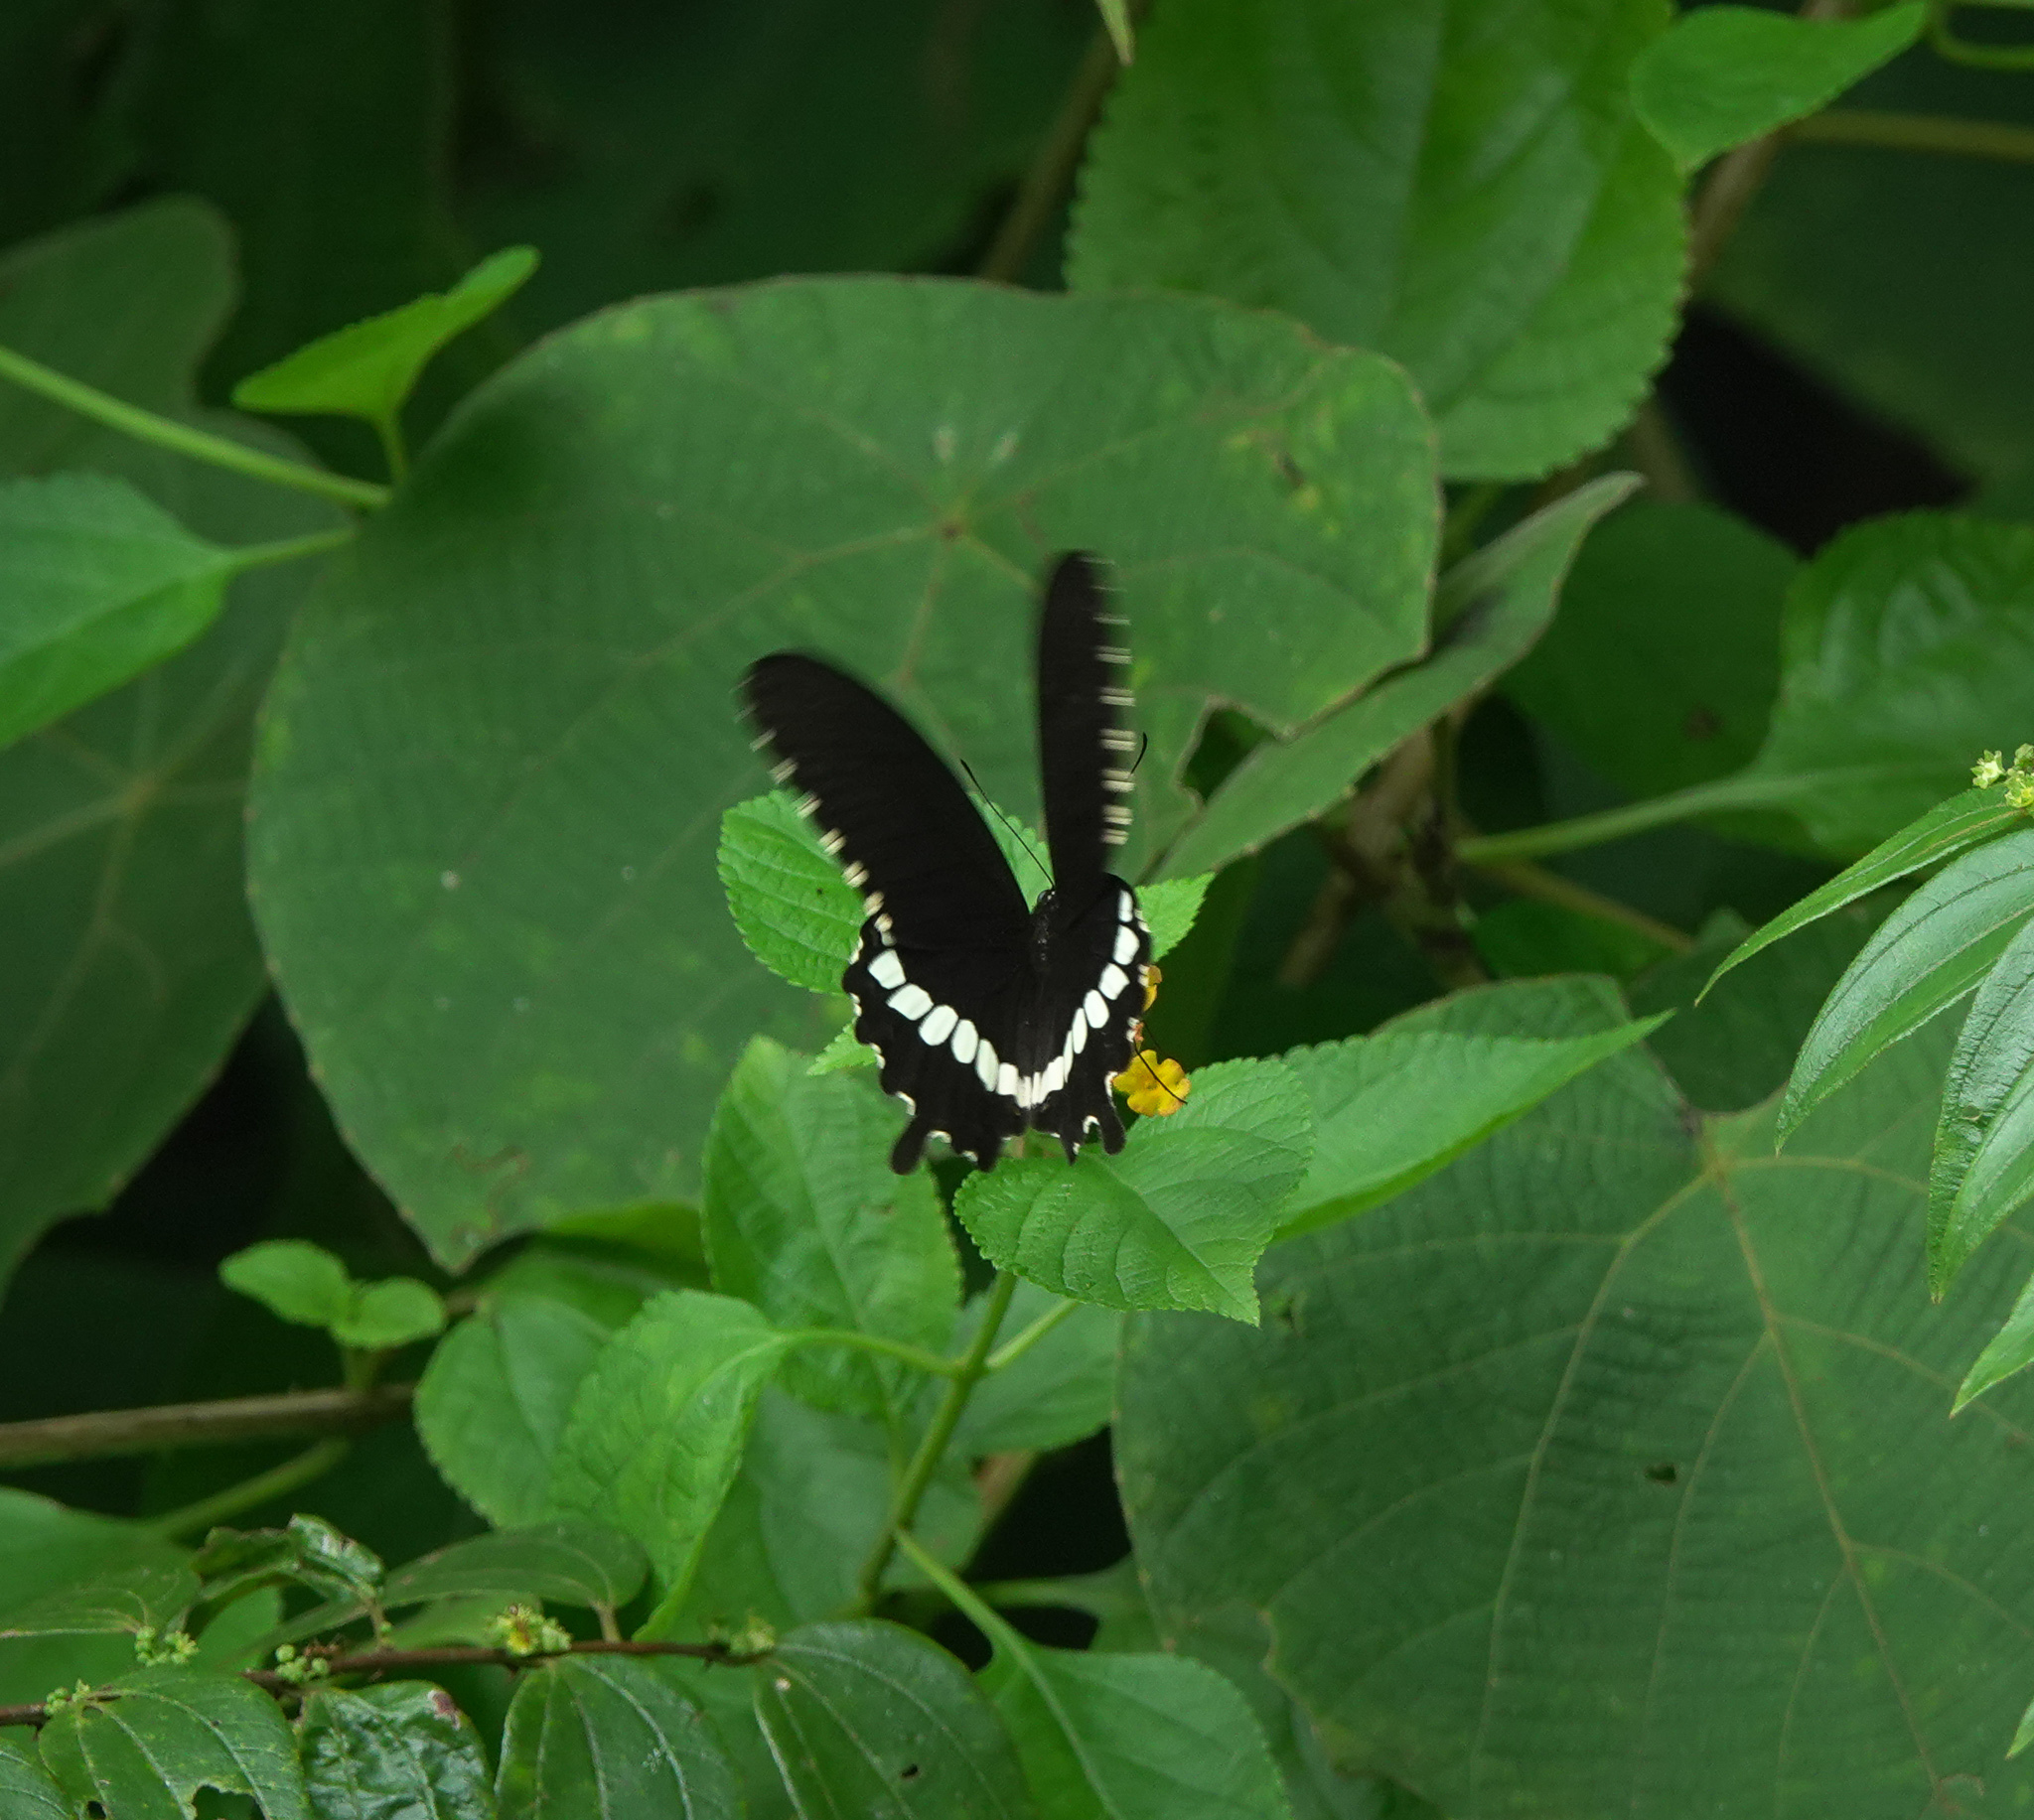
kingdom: Animalia
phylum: Arthropoda
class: Insecta
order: Lepidoptera
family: Papilionidae
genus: Papilio
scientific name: Papilio polytes
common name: Common mormon
